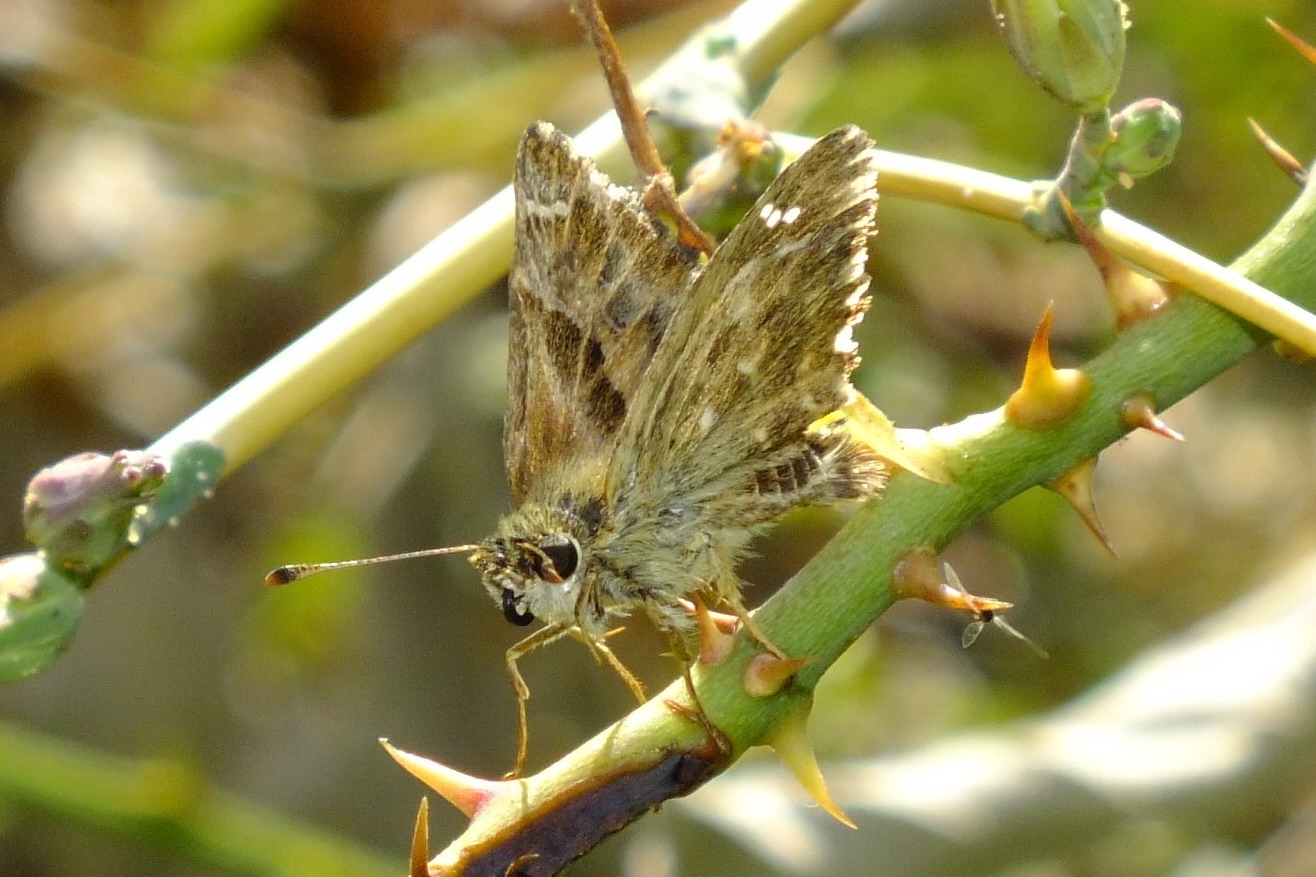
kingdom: Animalia
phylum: Arthropoda
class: Insecta
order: Lepidoptera
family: Hesperiidae
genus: Carcharodus
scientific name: Carcharodus alceae
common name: Mallow skipper
